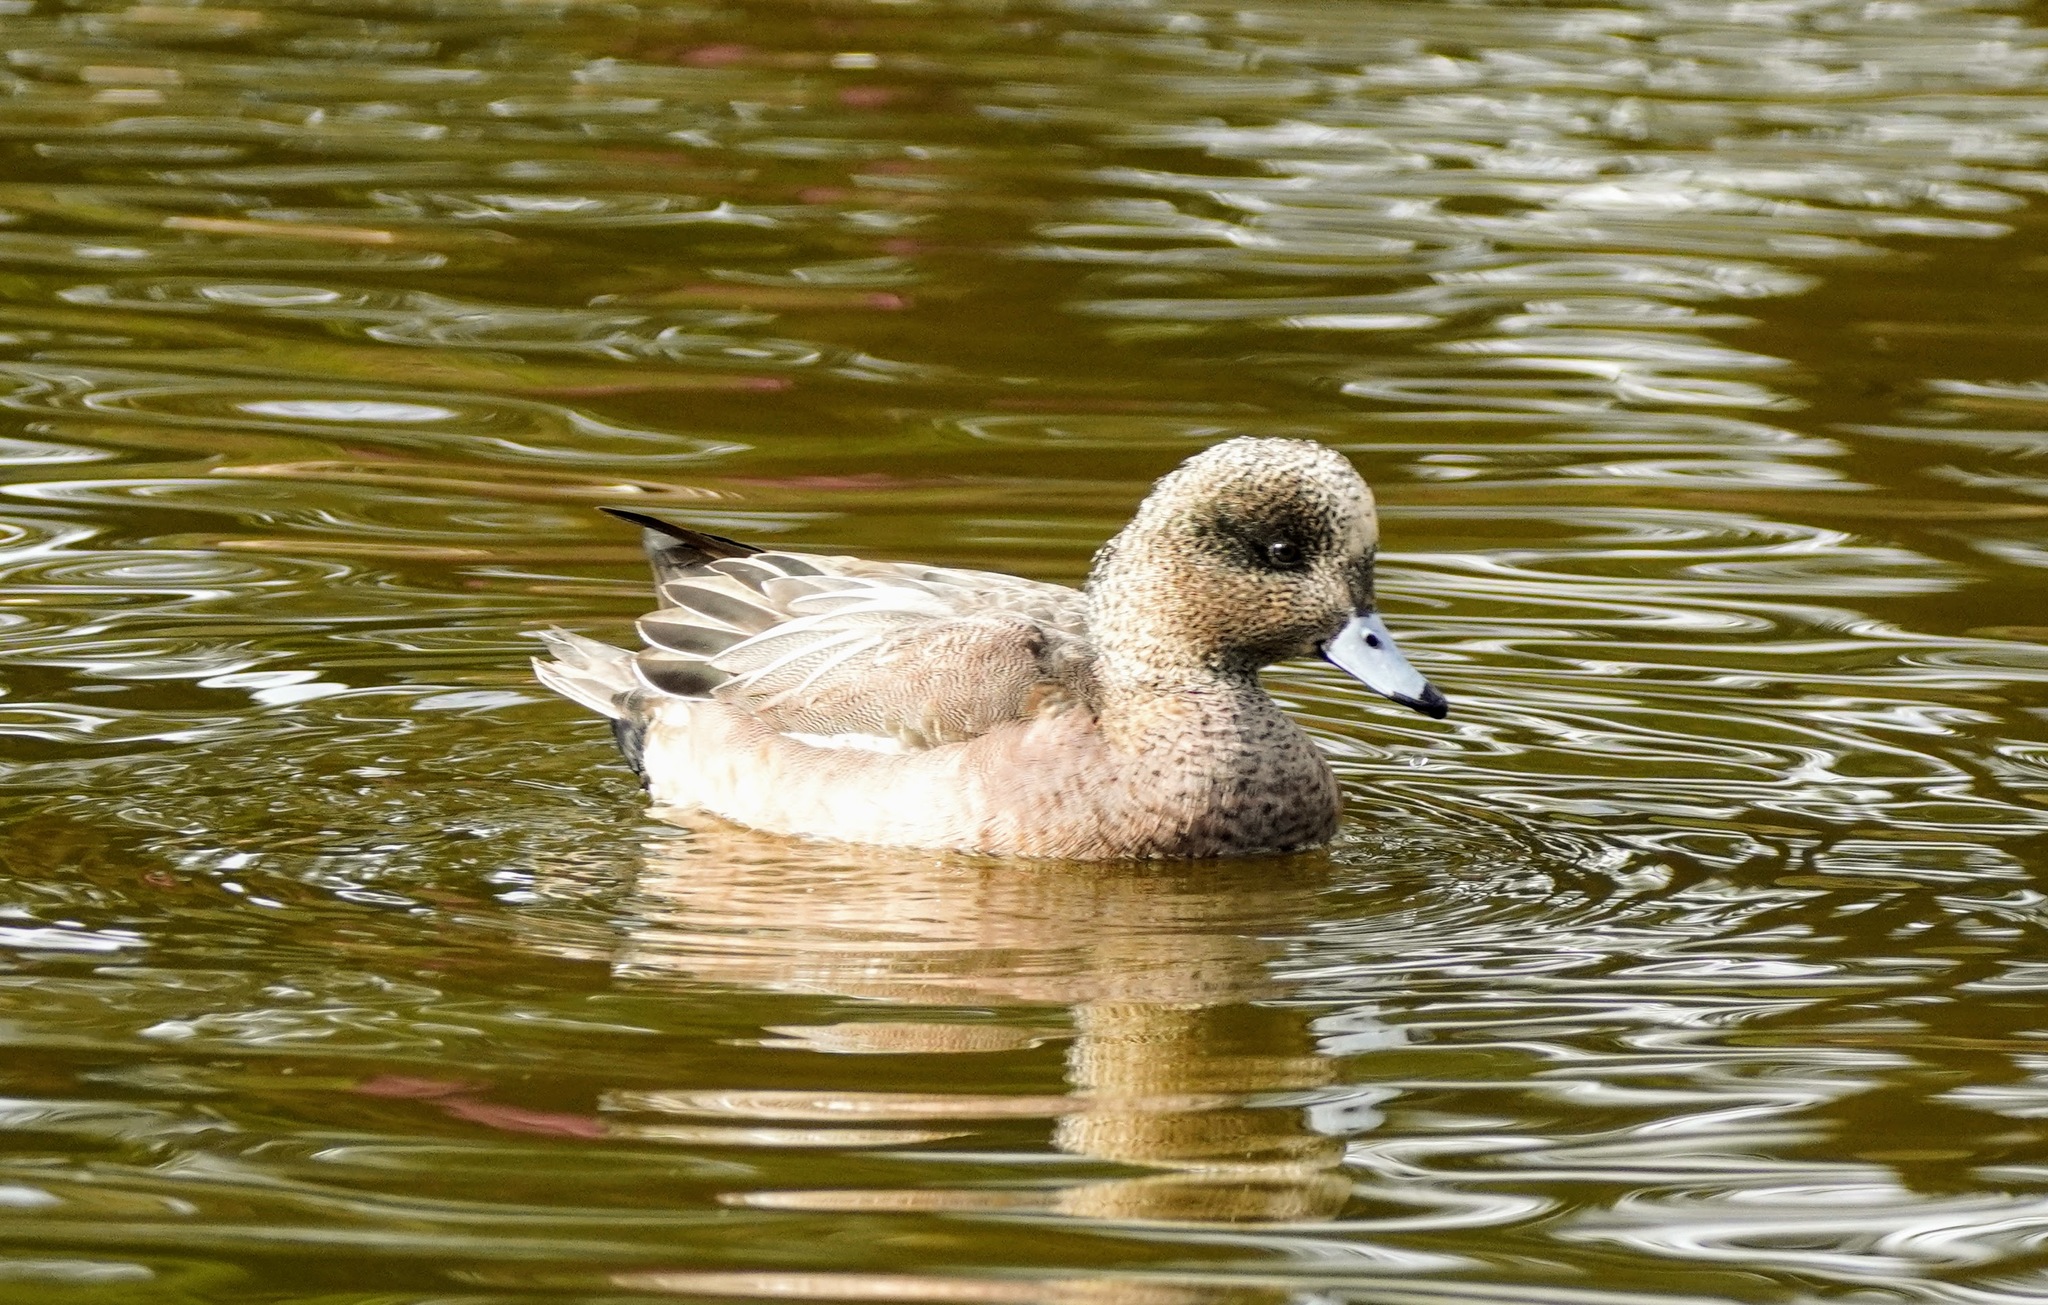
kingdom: Animalia
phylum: Chordata
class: Aves
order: Anseriformes
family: Anatidae
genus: Mareca
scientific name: Mareca americana
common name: American wigeon
